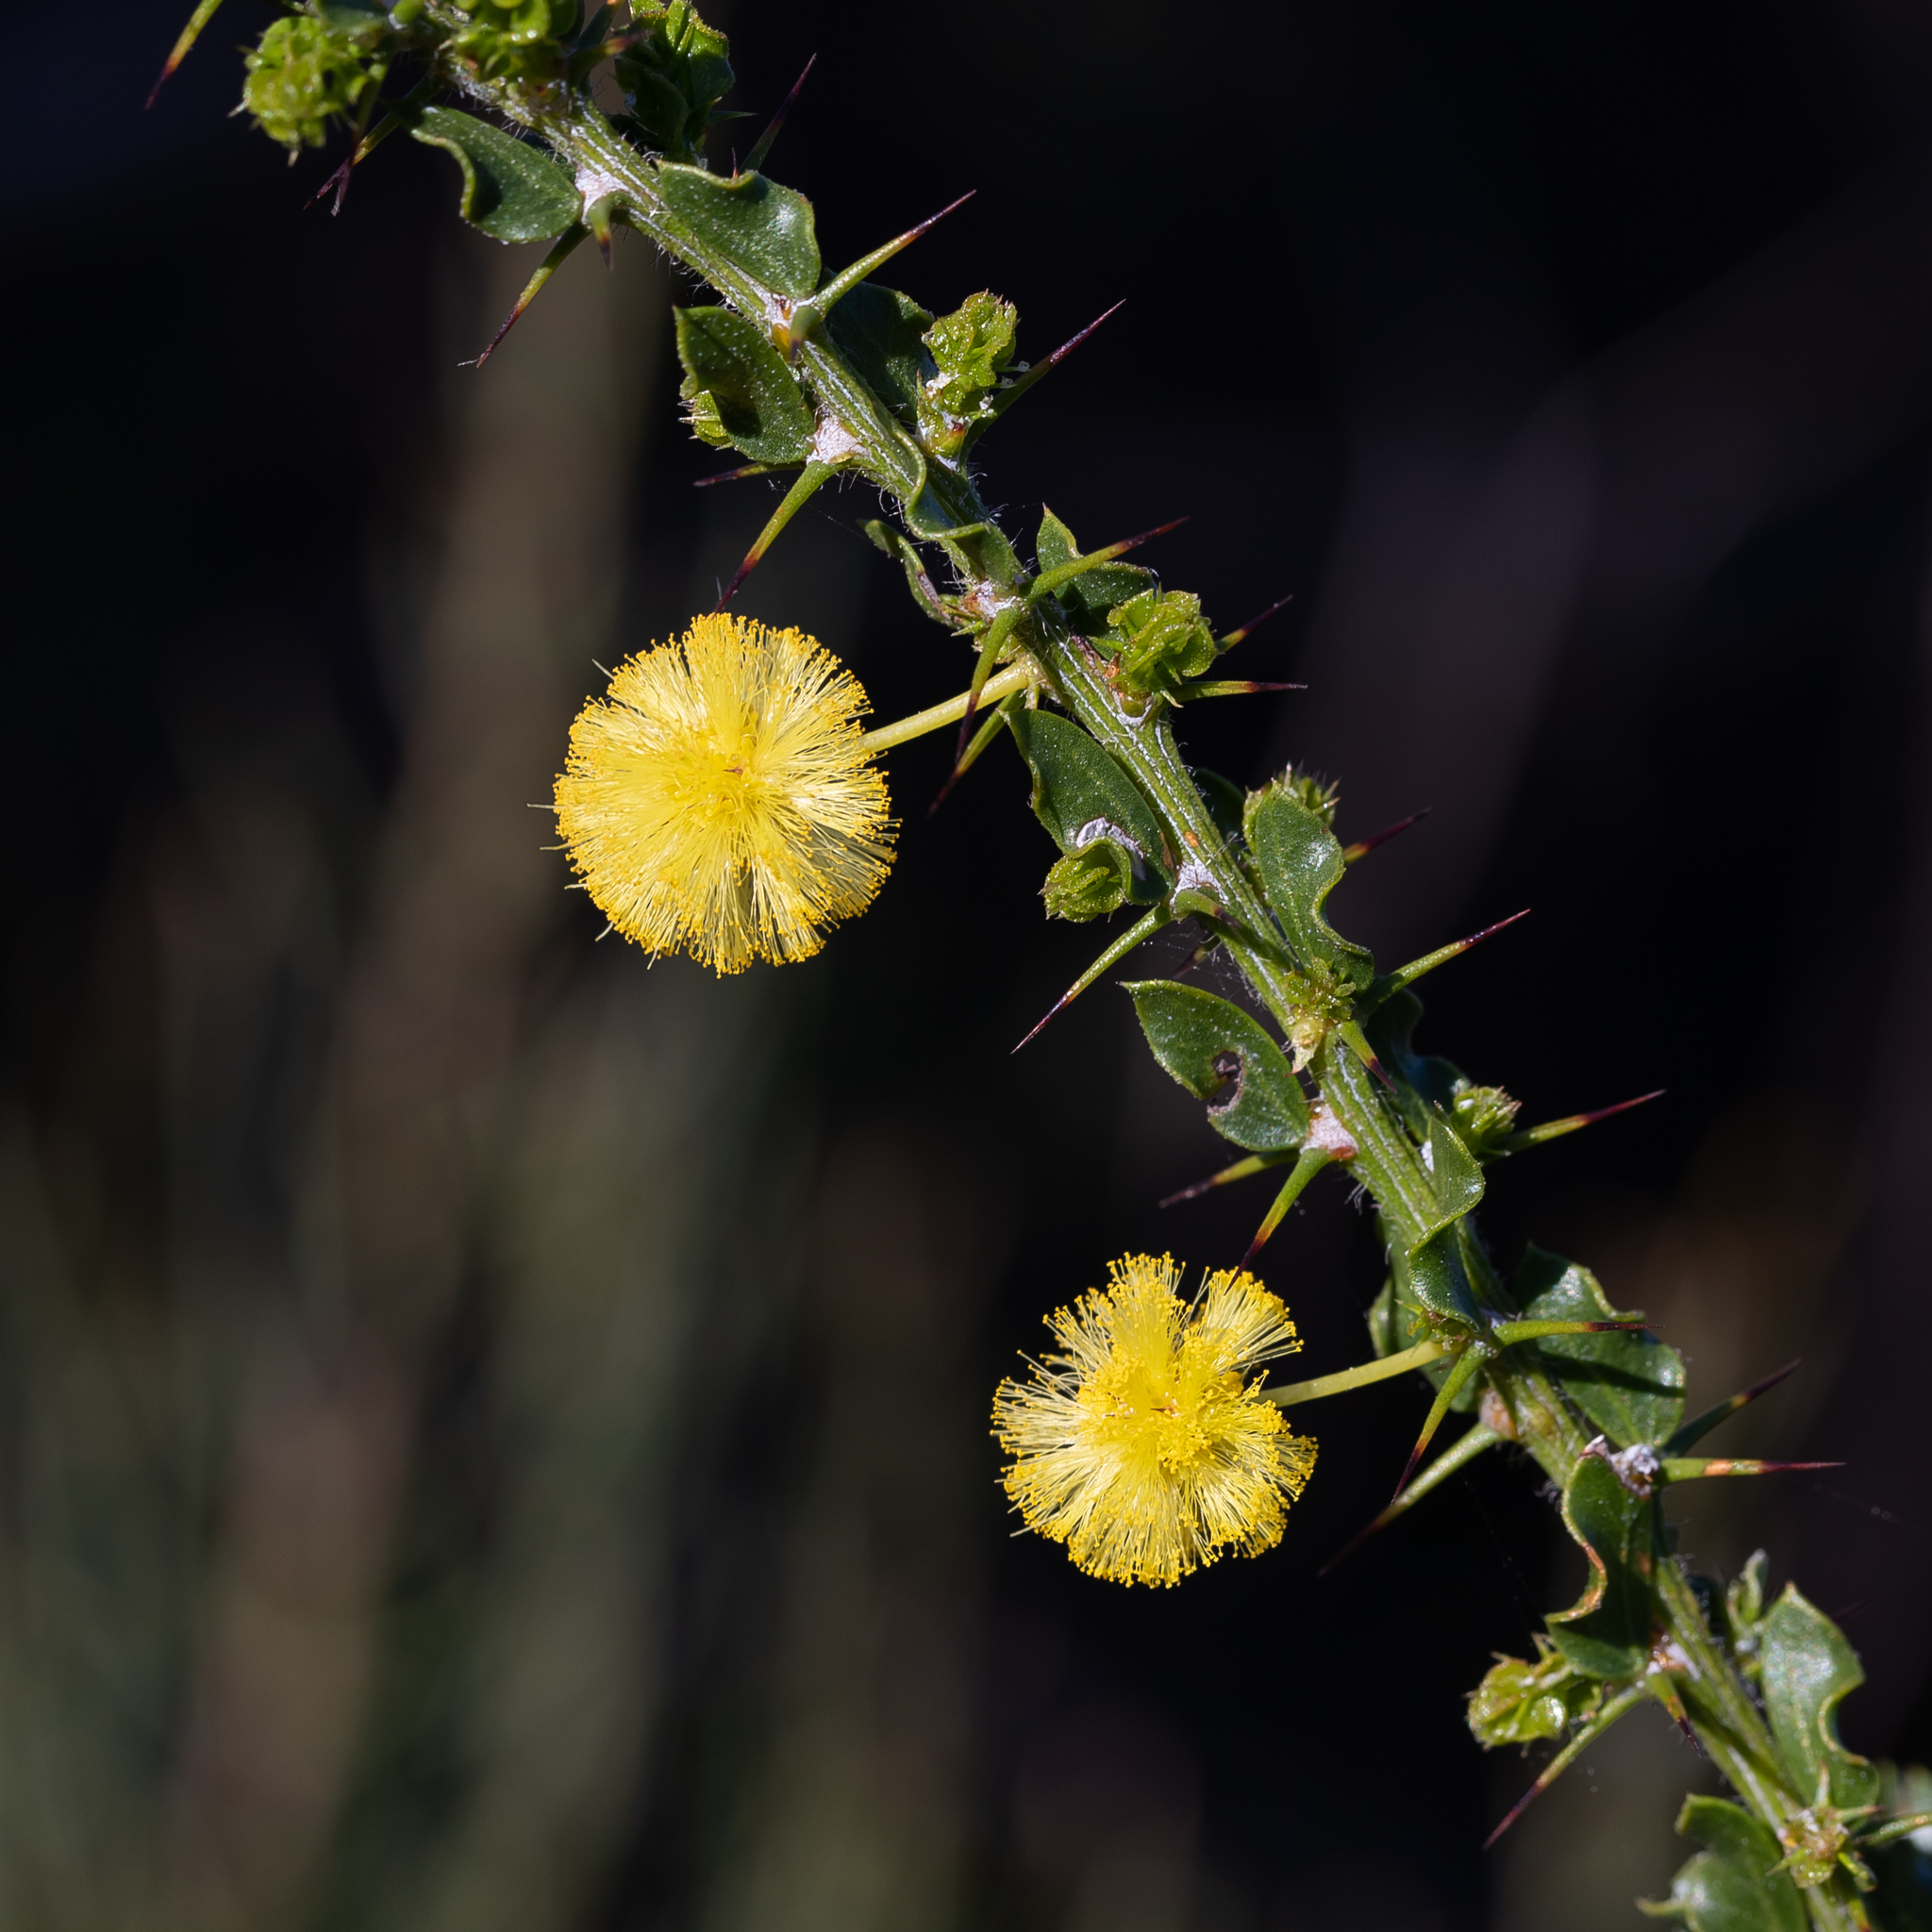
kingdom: Plantae
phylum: Tracheophyta
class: Magnoliopsida
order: Fabales
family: Fabaceae
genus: Acacia
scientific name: Acacia paradoxa
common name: Paradox acacia
